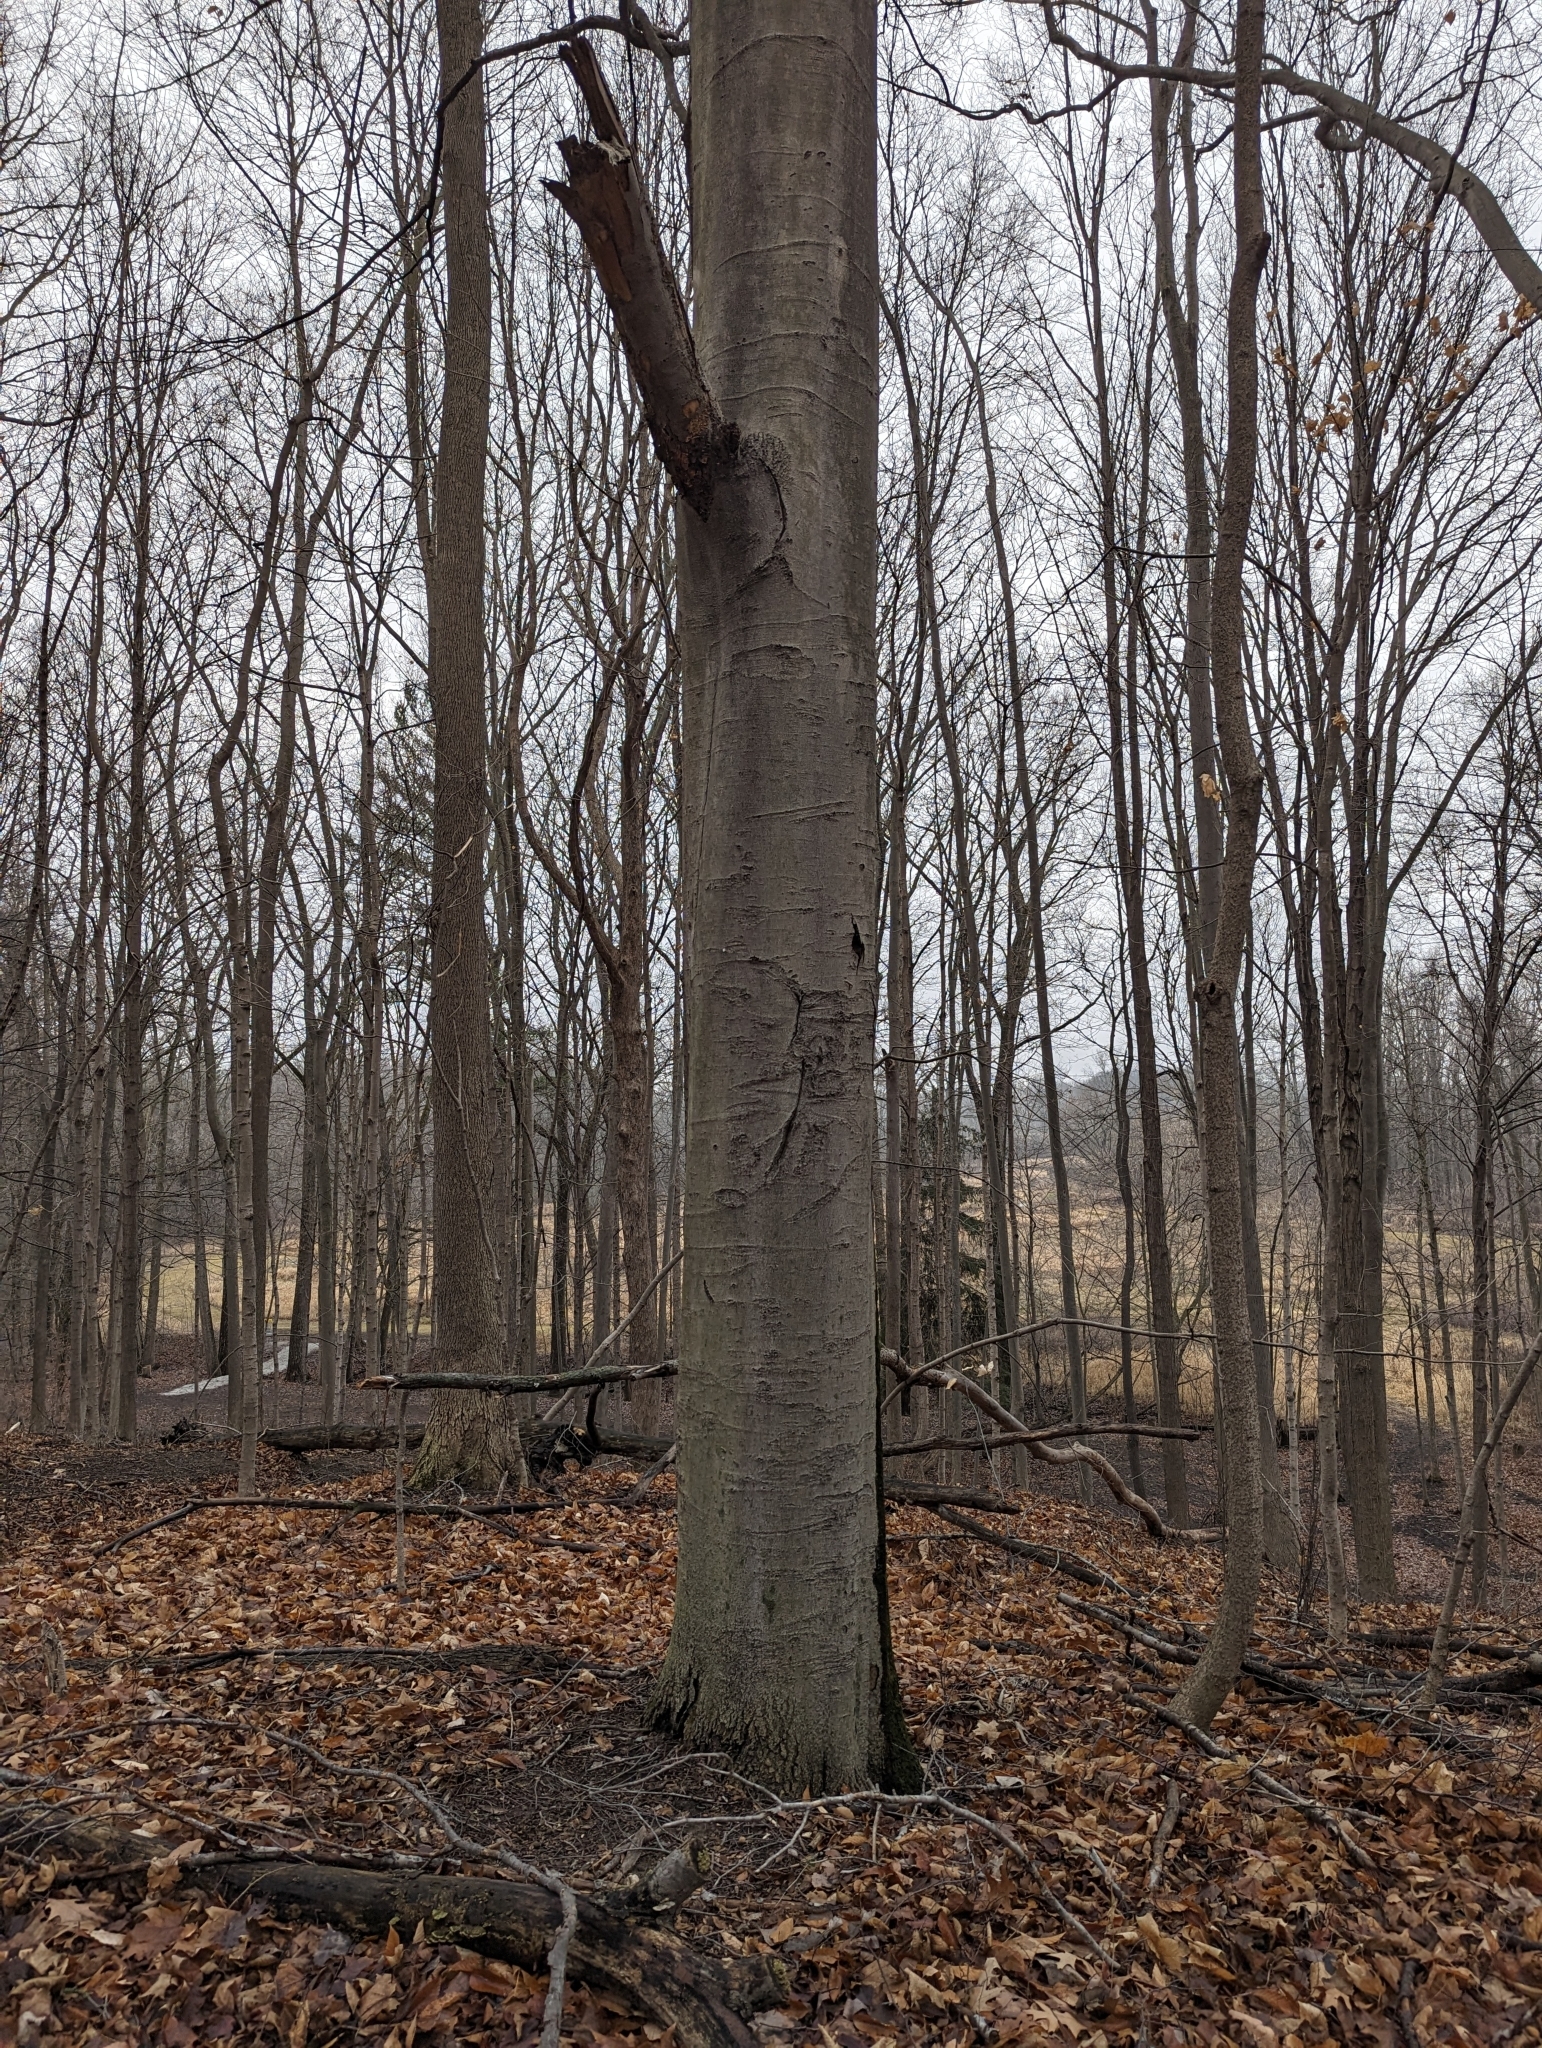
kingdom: Plantae
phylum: Tracheophyta
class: Magnoliopsida
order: Fagales
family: Fagaceae
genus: Fagus
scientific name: Fagus grandifolia
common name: American beech
